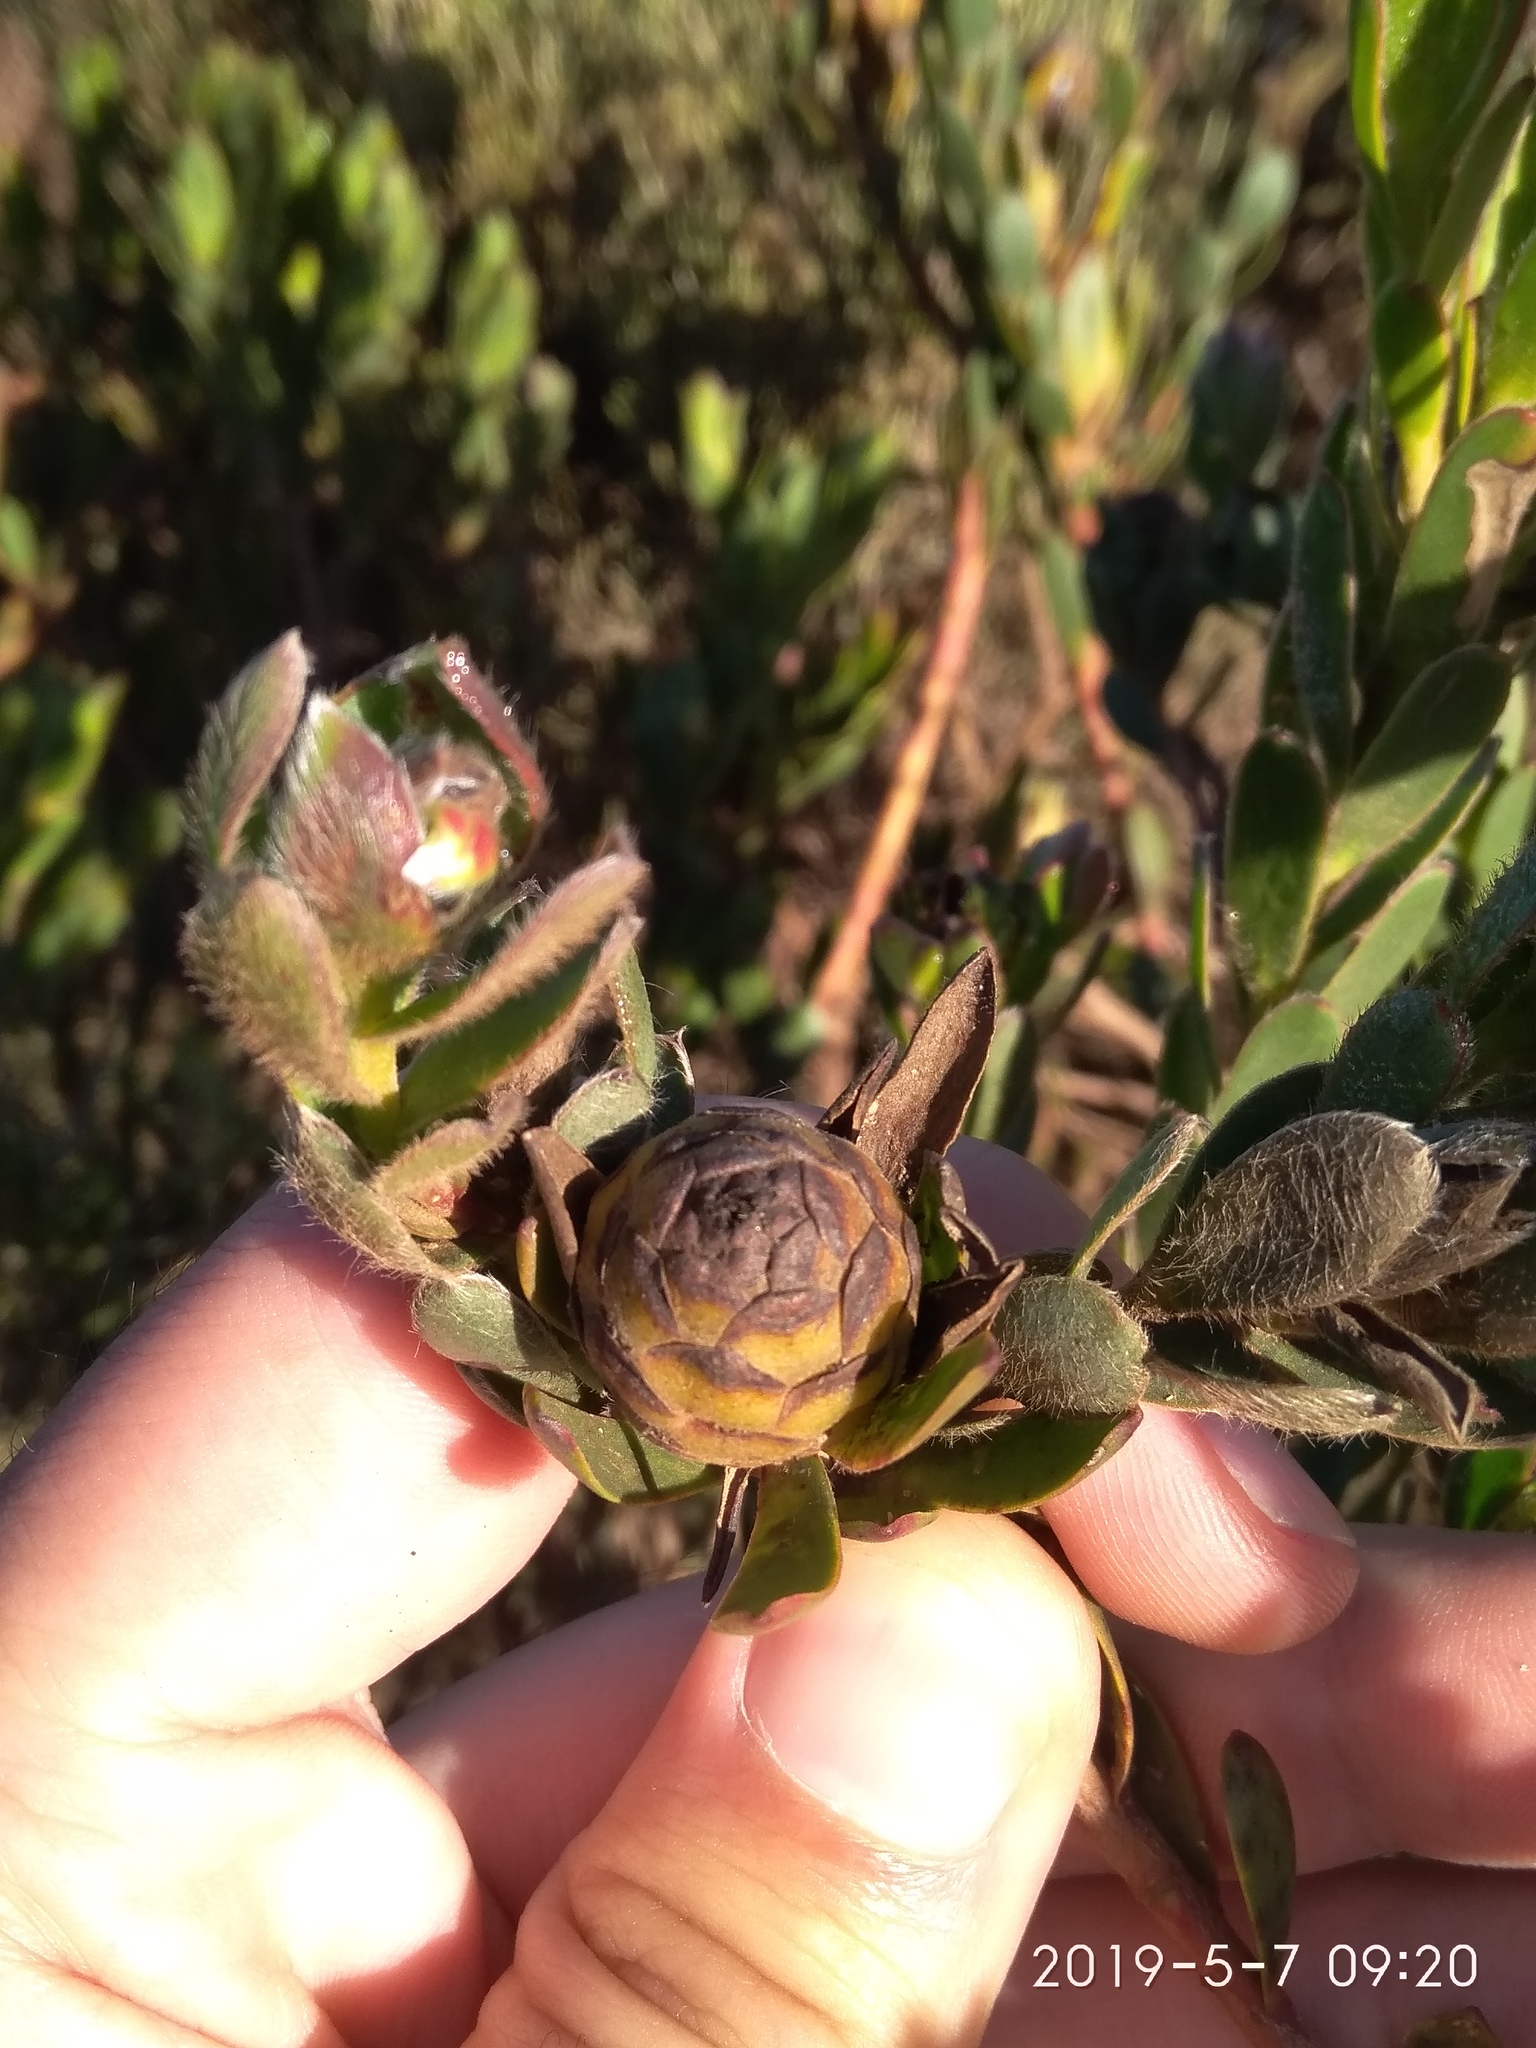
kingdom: Plantae
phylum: Tracheophyta
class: Magnoliopsida
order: Proteales
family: Proteaceae
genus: Leucadendron
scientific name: Leucadendron stelligerum
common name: Agulhas conebush
